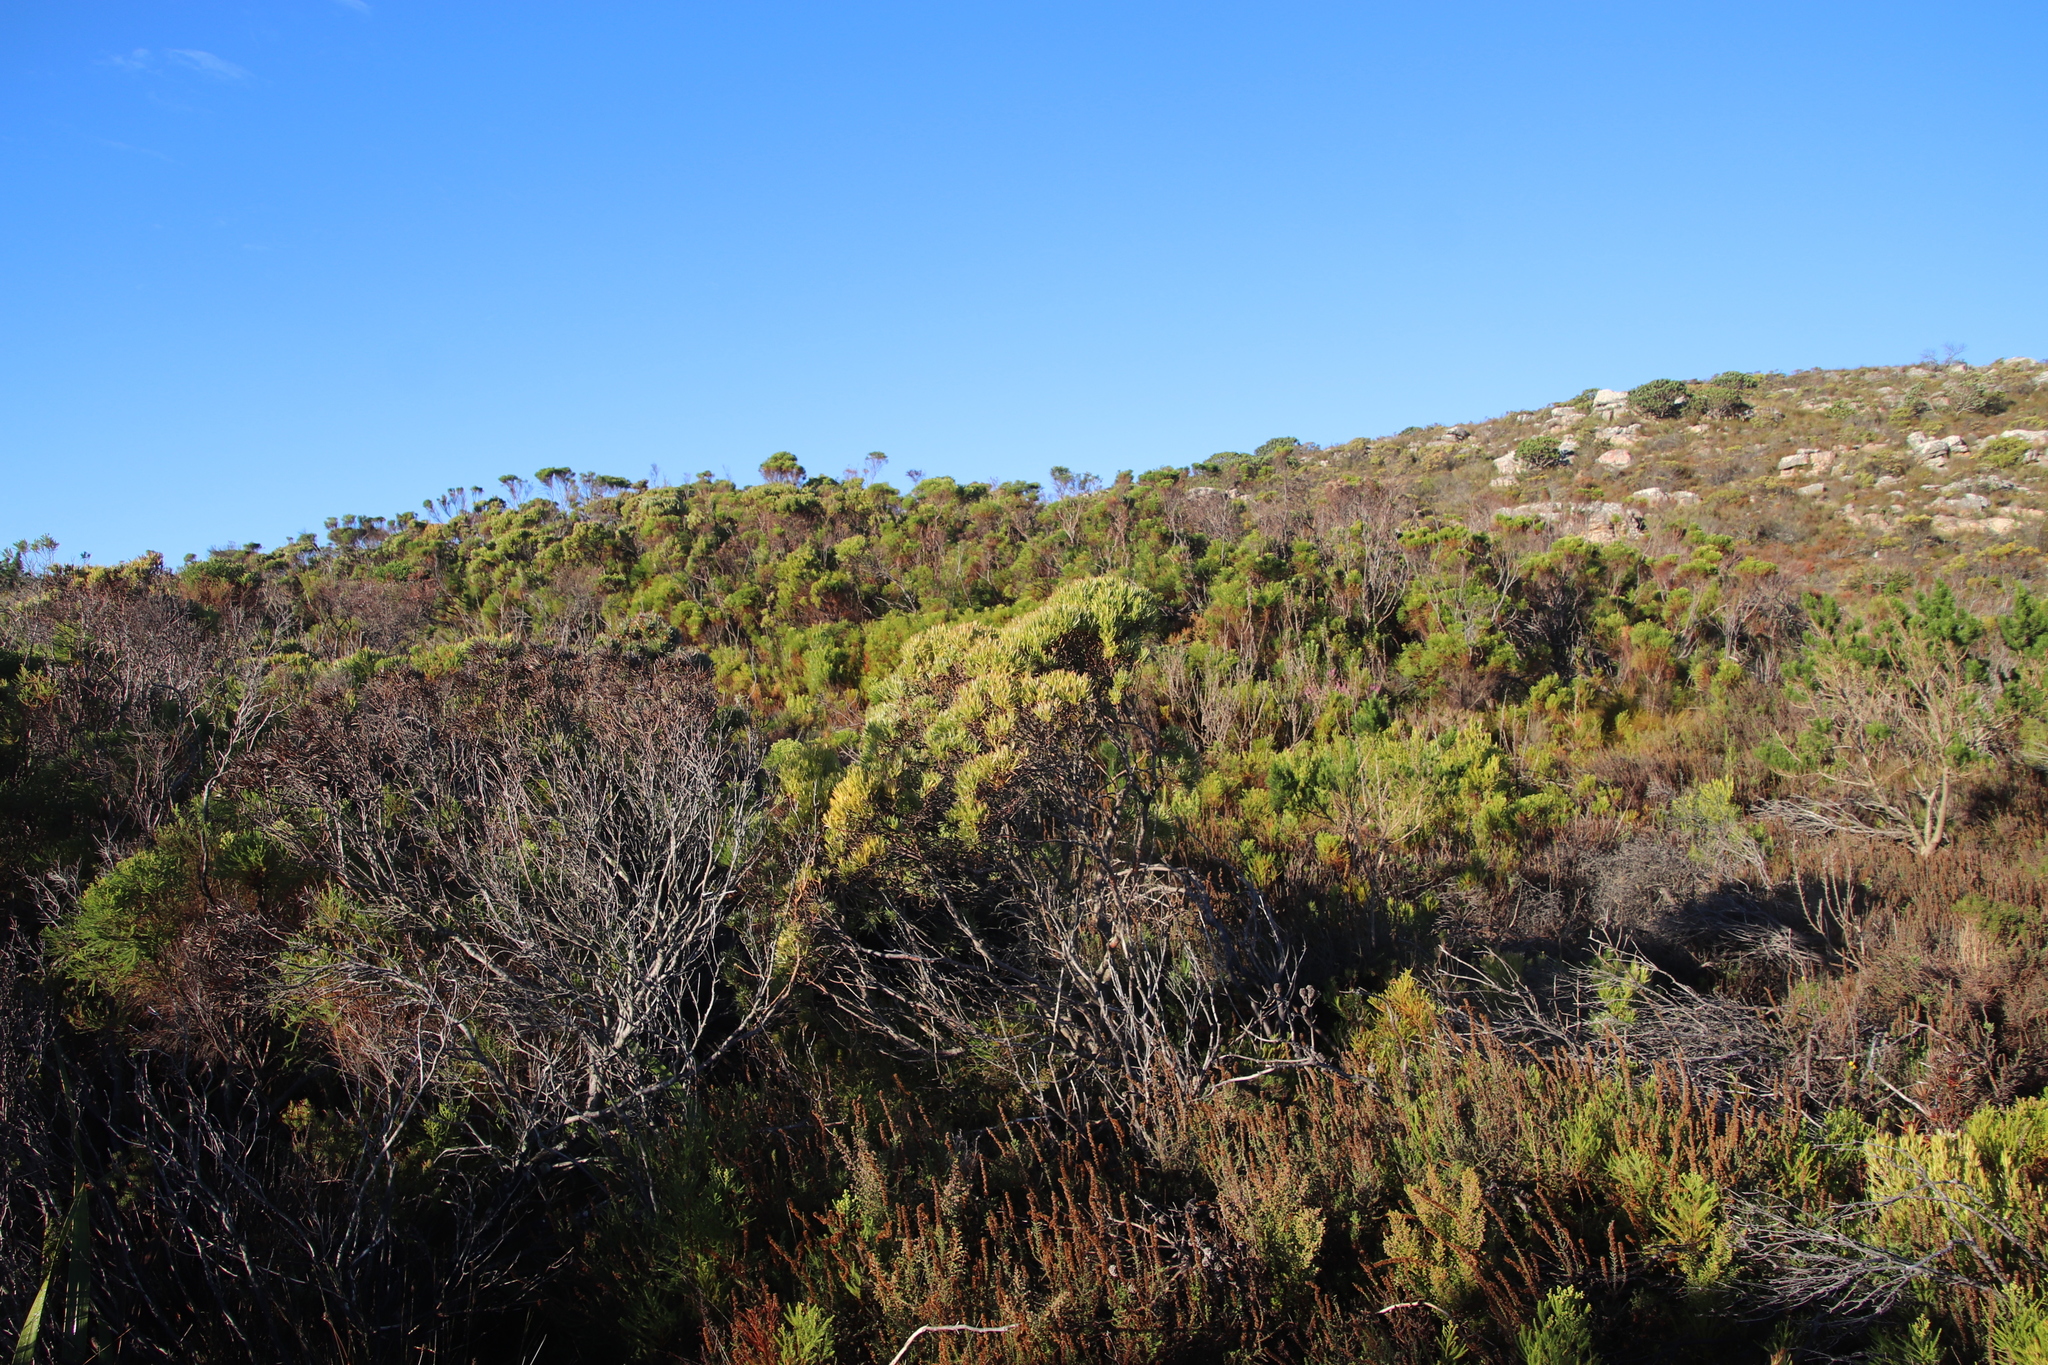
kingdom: Plantae
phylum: Tracheophyta
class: Magnoliopsida
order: Proteales
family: Proteaceae
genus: Leucadendron
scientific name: Leucadendron xanthoconus
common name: Sickle-leaf conebush
